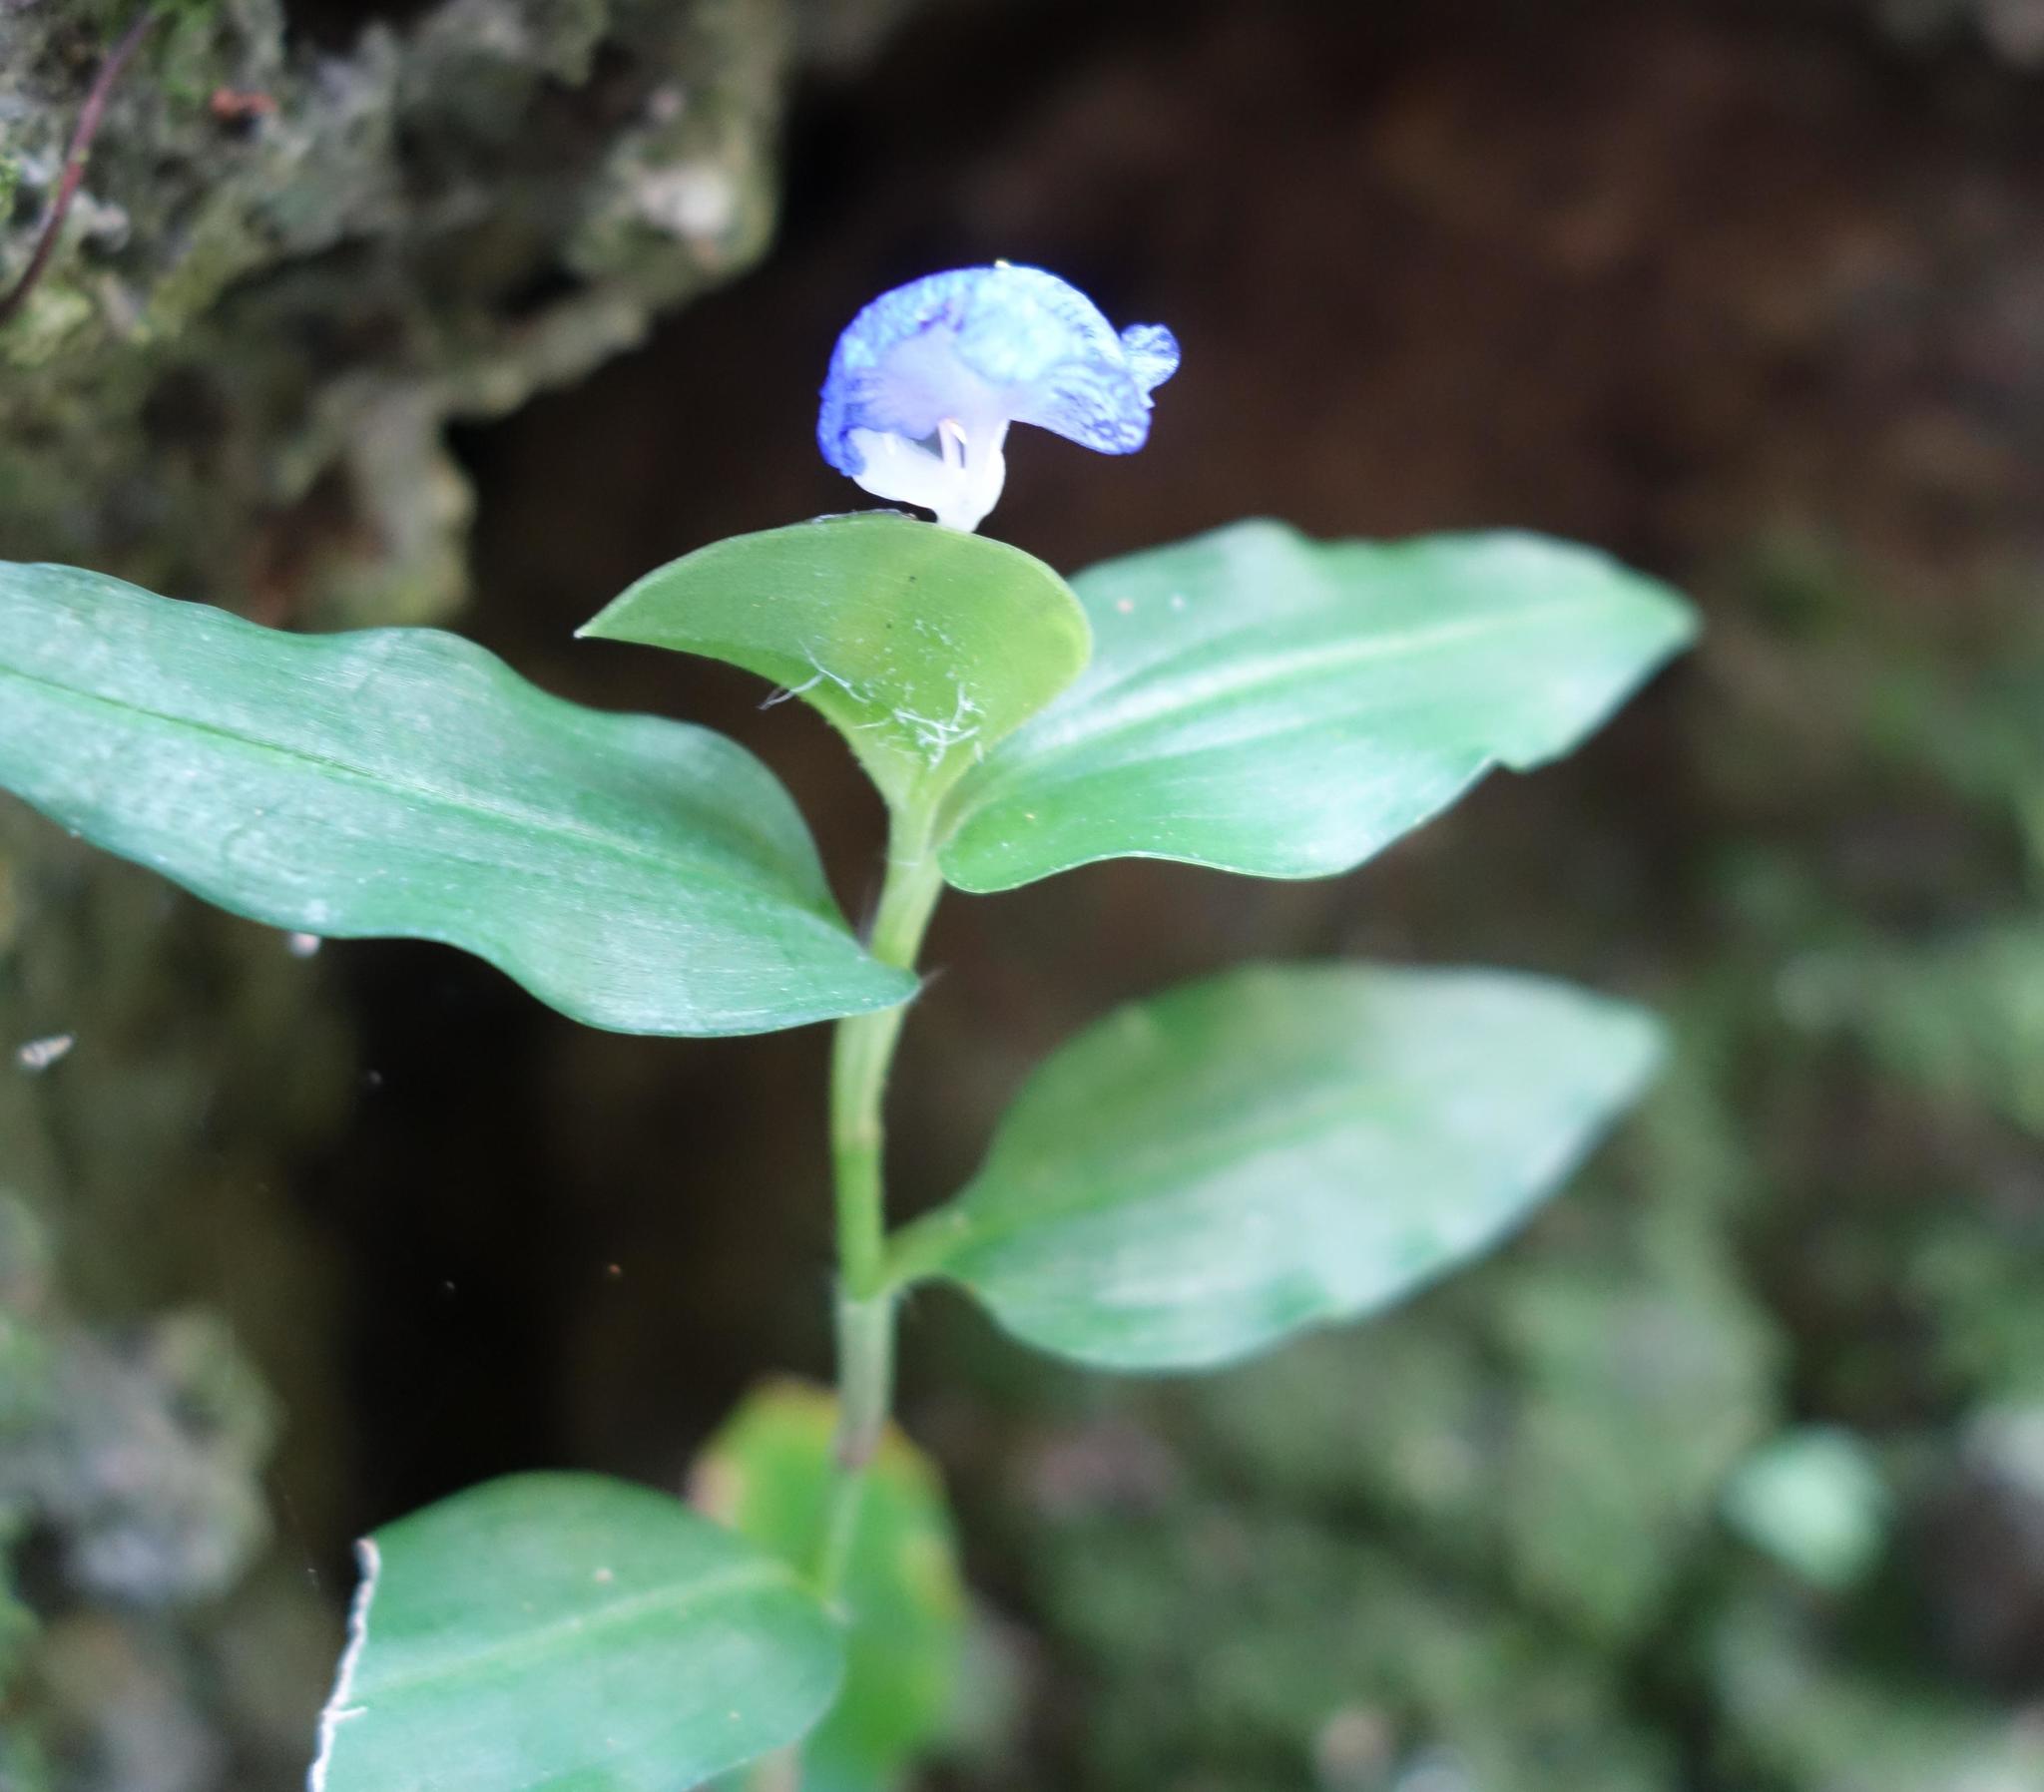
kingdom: Plantae
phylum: Tracheophyta
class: Liliopsida
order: Commelinales
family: Commelinaceae
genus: Commelina
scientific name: Commelina auriculata
